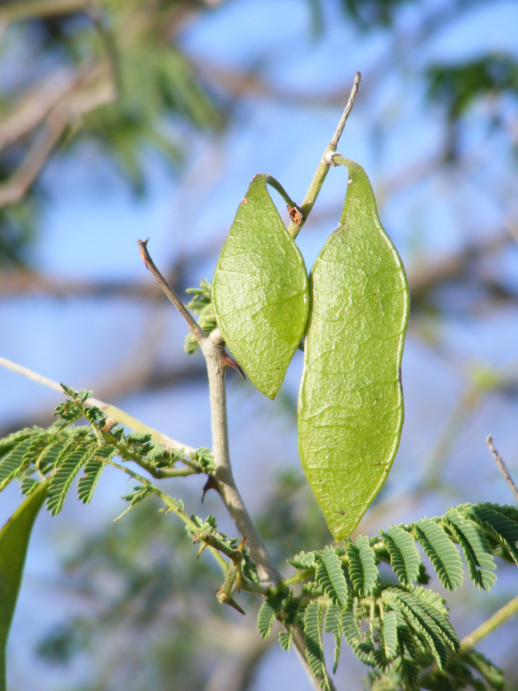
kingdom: Plantae
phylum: Tracheophyta
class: Magnoliopsida
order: Fabales
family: Fabaceae
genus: Senegalia
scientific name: Senegalia fleckii
